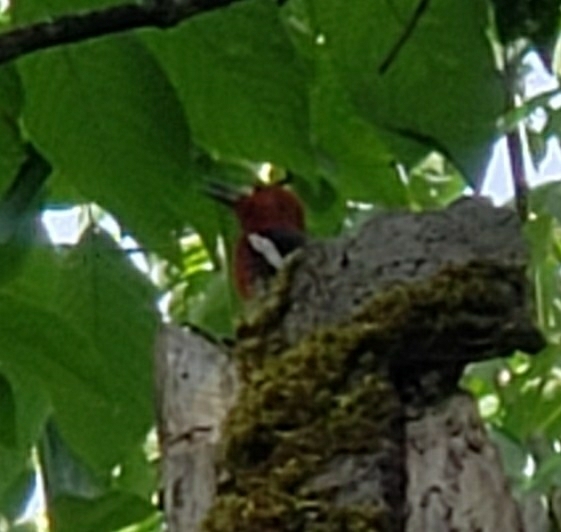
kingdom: Animalia
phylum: Chordata
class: Aves
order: Piciformes
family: Picidae
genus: Sphyrapicus
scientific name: Sphyrapicus ruber
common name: Red-breasted sapsucker
